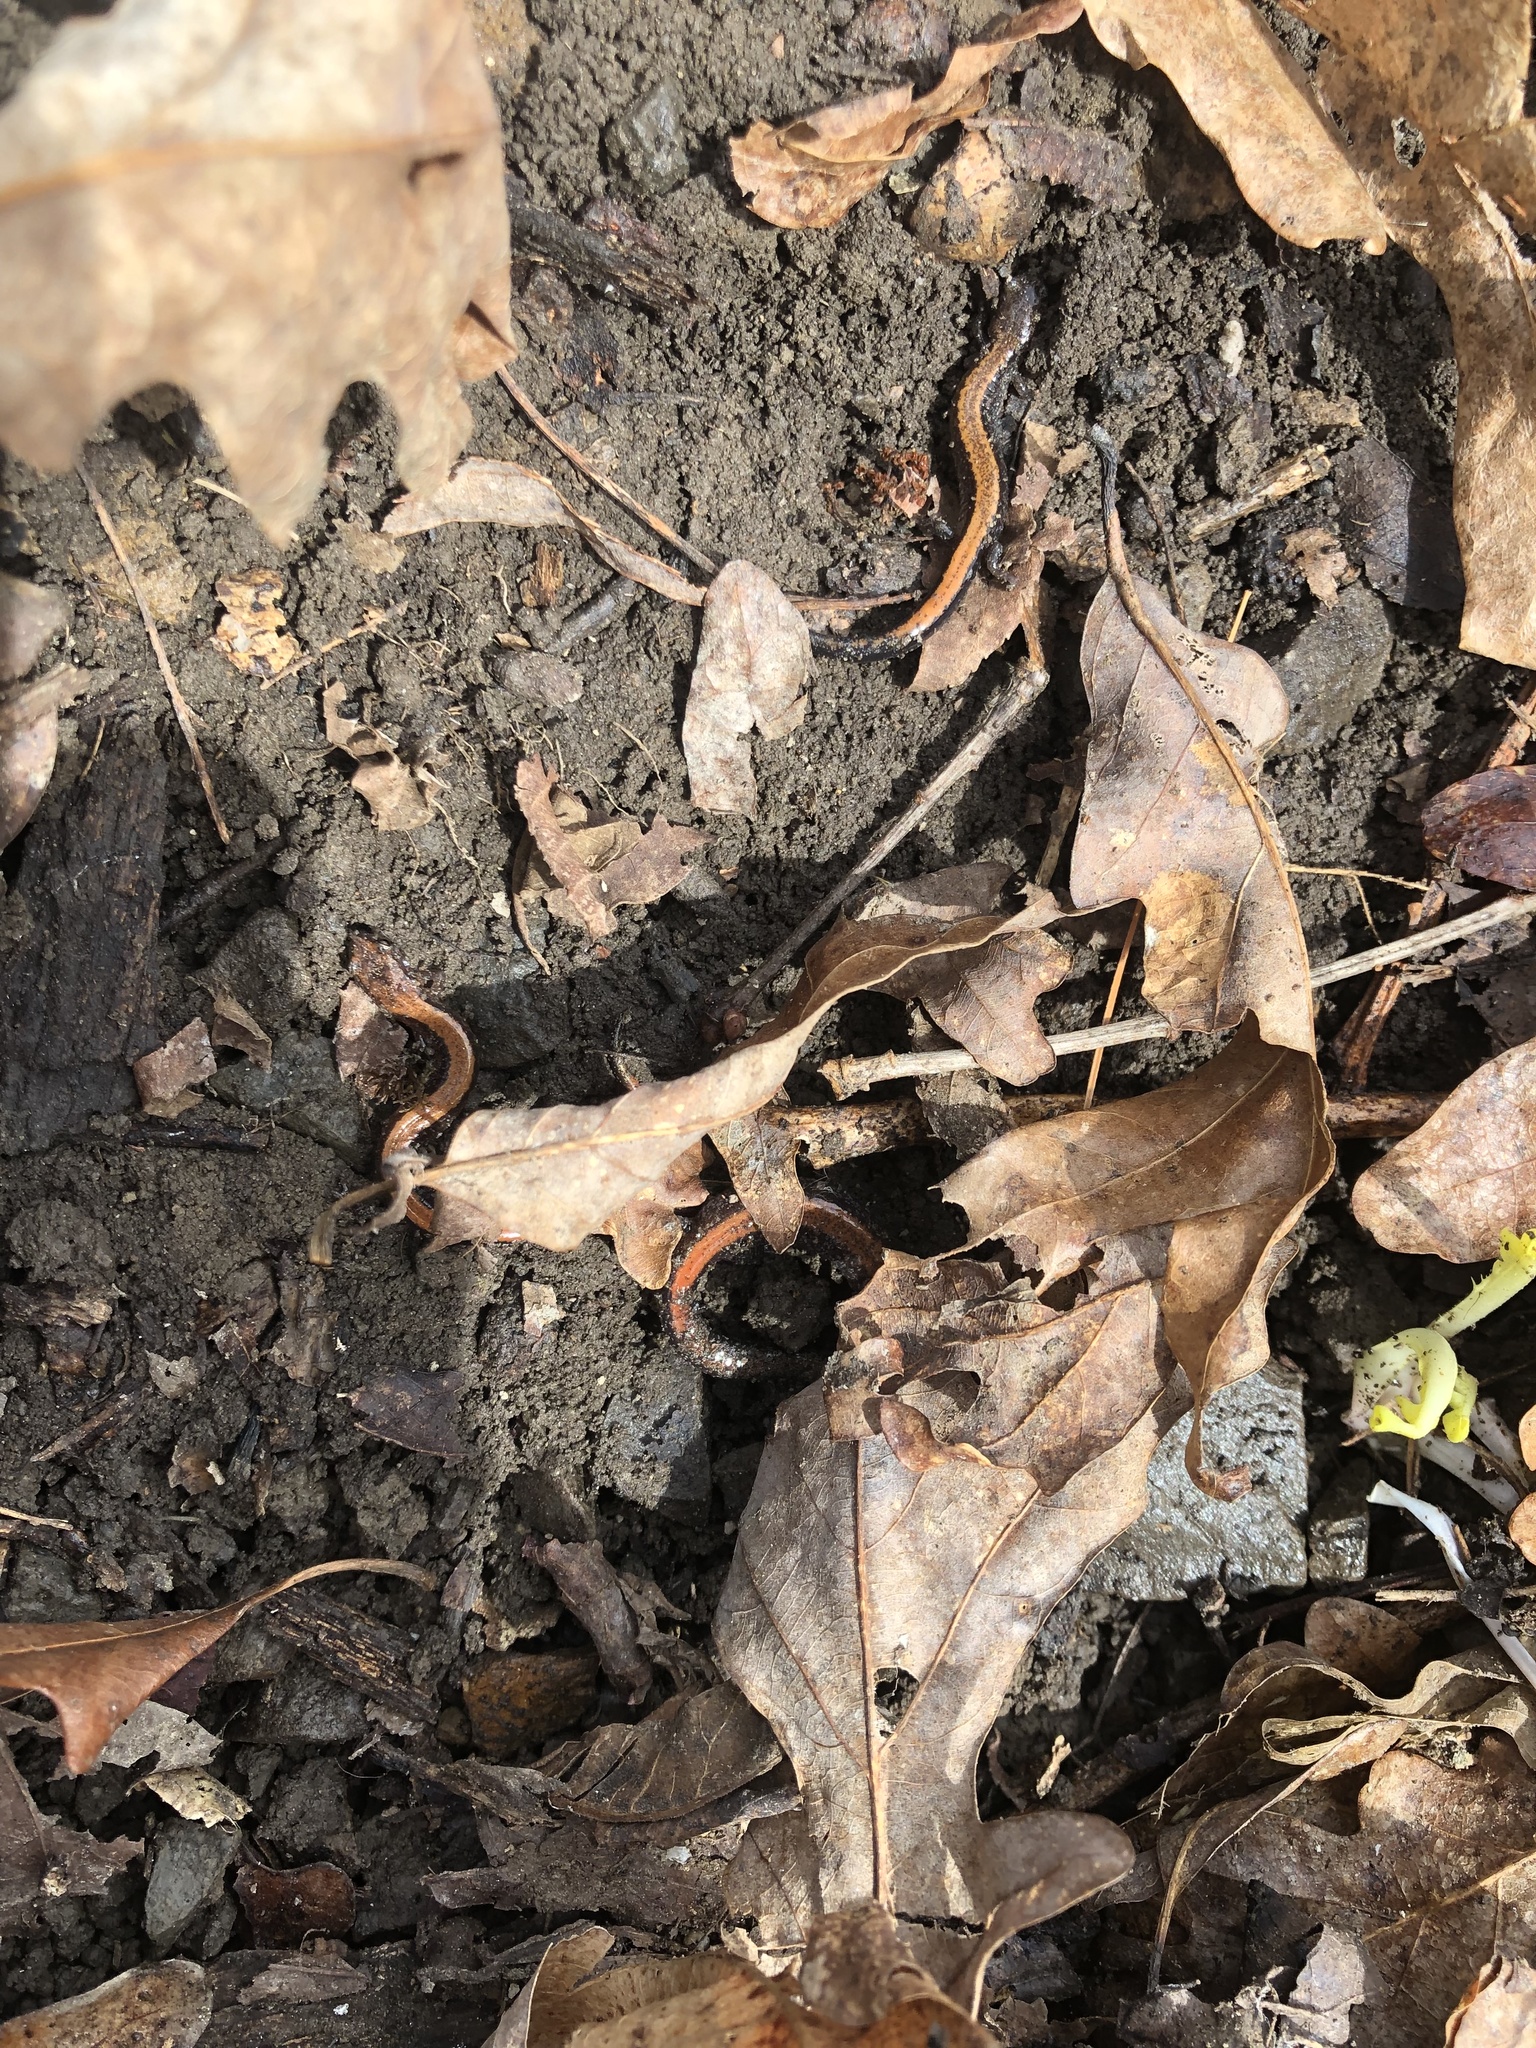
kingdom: Animalia
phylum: Chordata
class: Amphibia
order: Caudata
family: Plethodontidae
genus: Plethodon
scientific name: Plethodon cinereus
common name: Redback salamander
